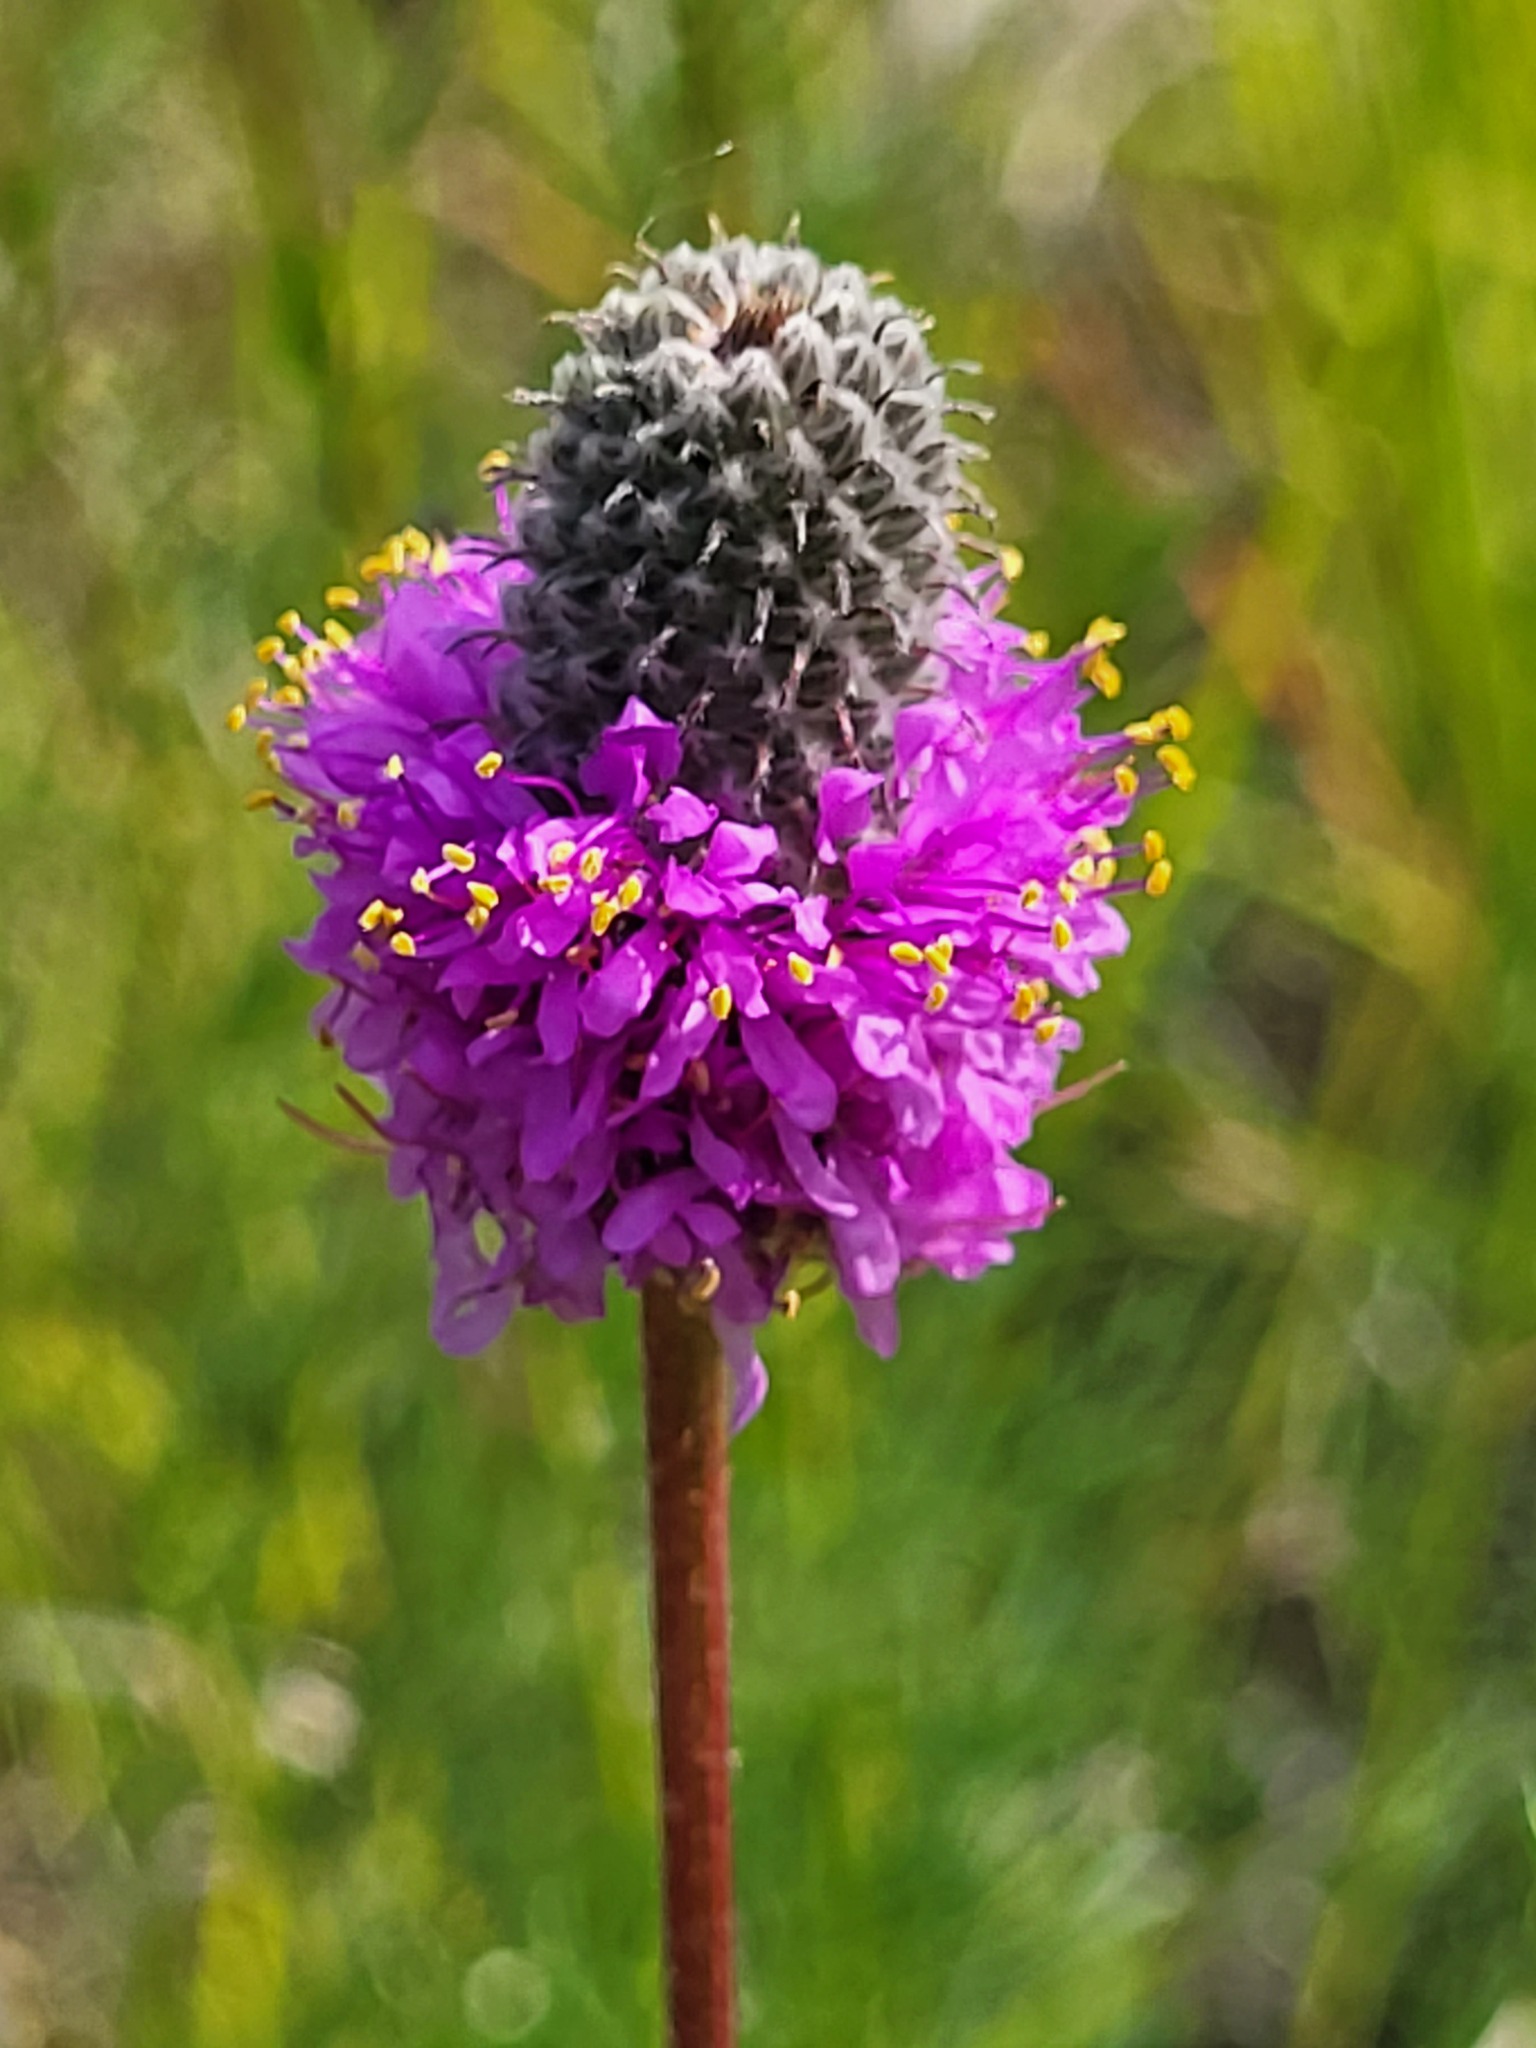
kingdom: Plantae
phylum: Tracheophyta
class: Magnoliopsida
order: Fabales
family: Fabaceae
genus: Dalea
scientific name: Dalea purpurea
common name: Purple prairie-clover
